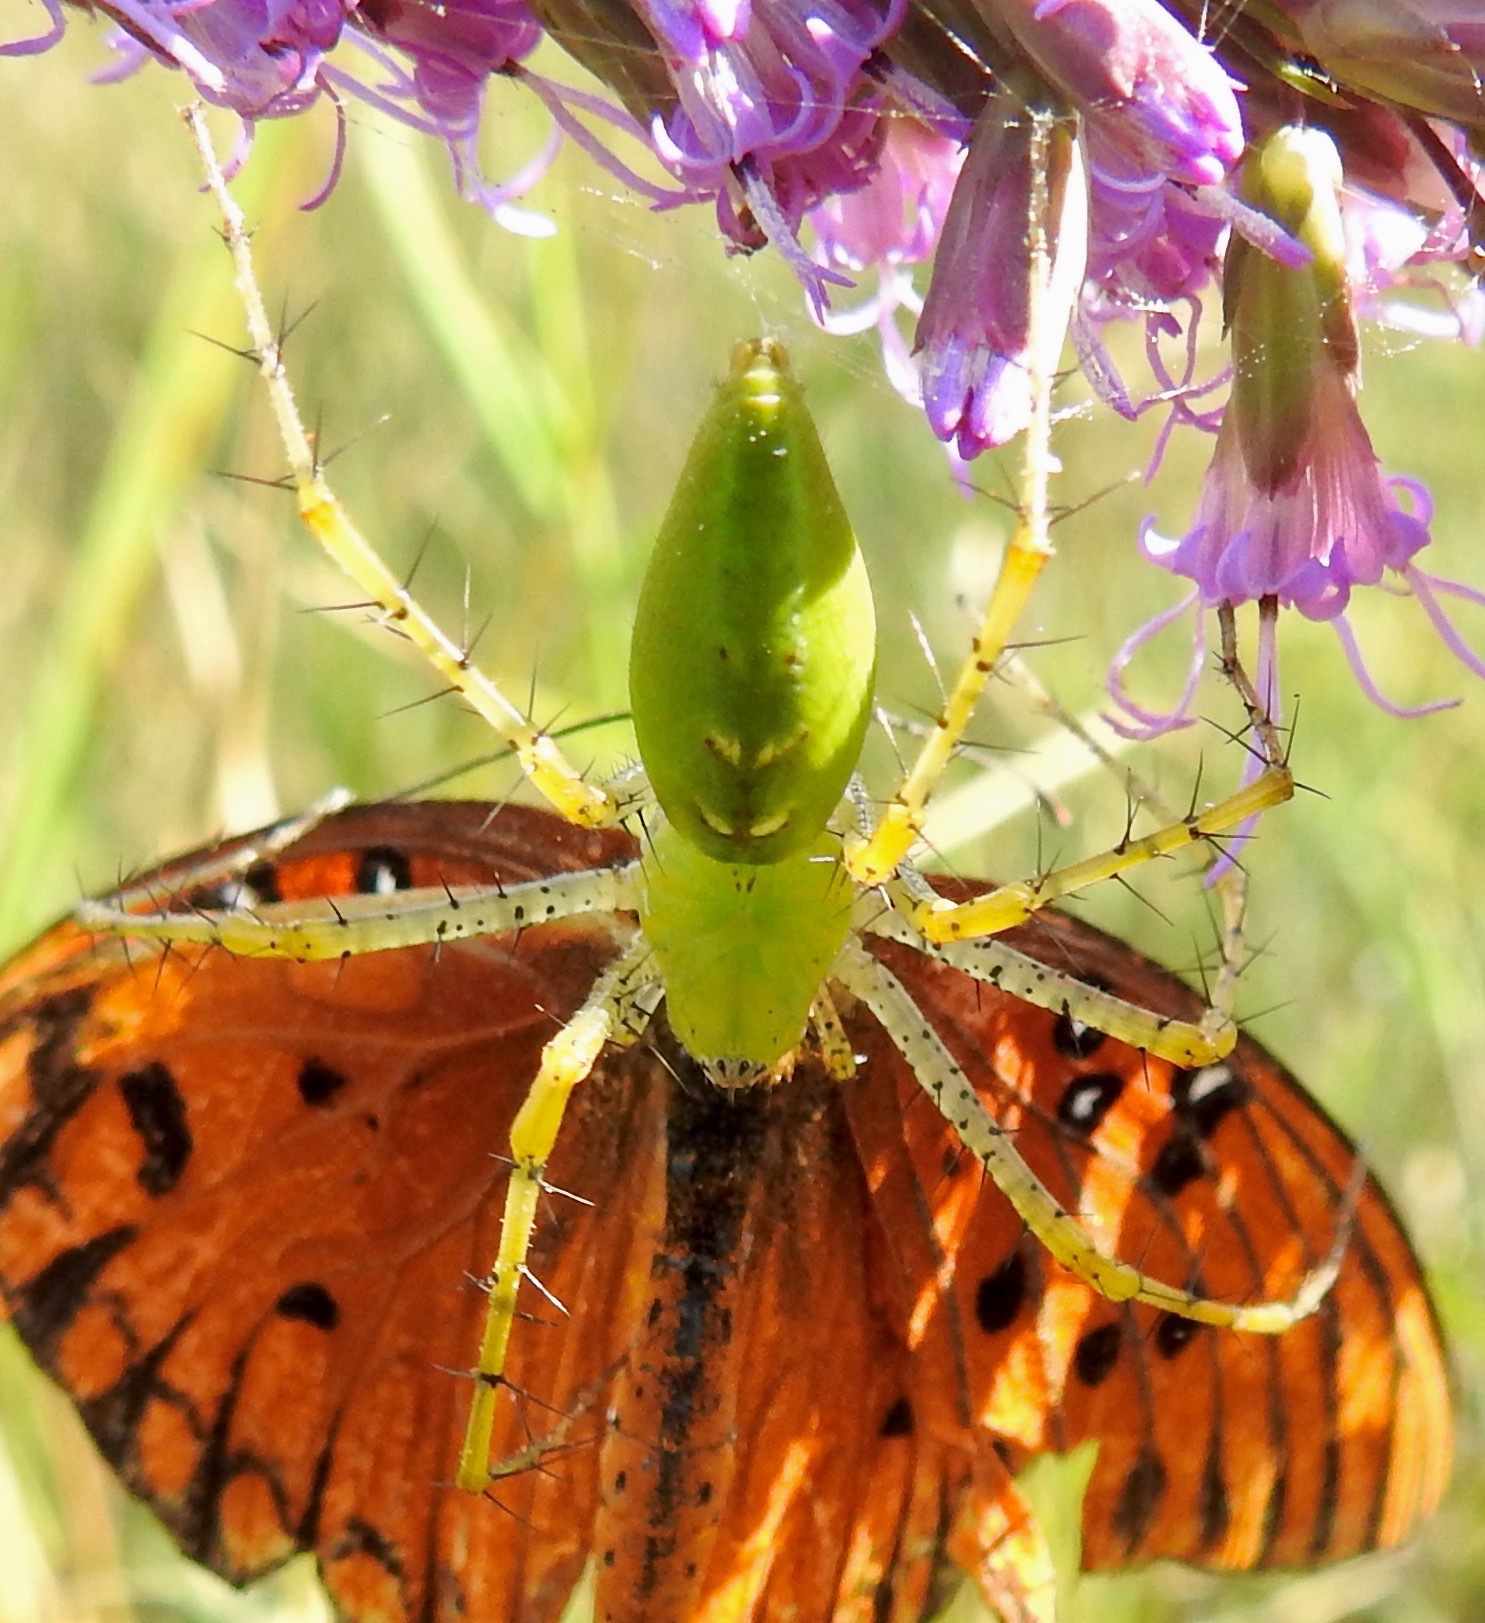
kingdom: Animalia
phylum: Arthropoda
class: Arachnida
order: Araneae
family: Oxyopidae
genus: Peucetia
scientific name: Peucetia viridans
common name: Lynx spiders
